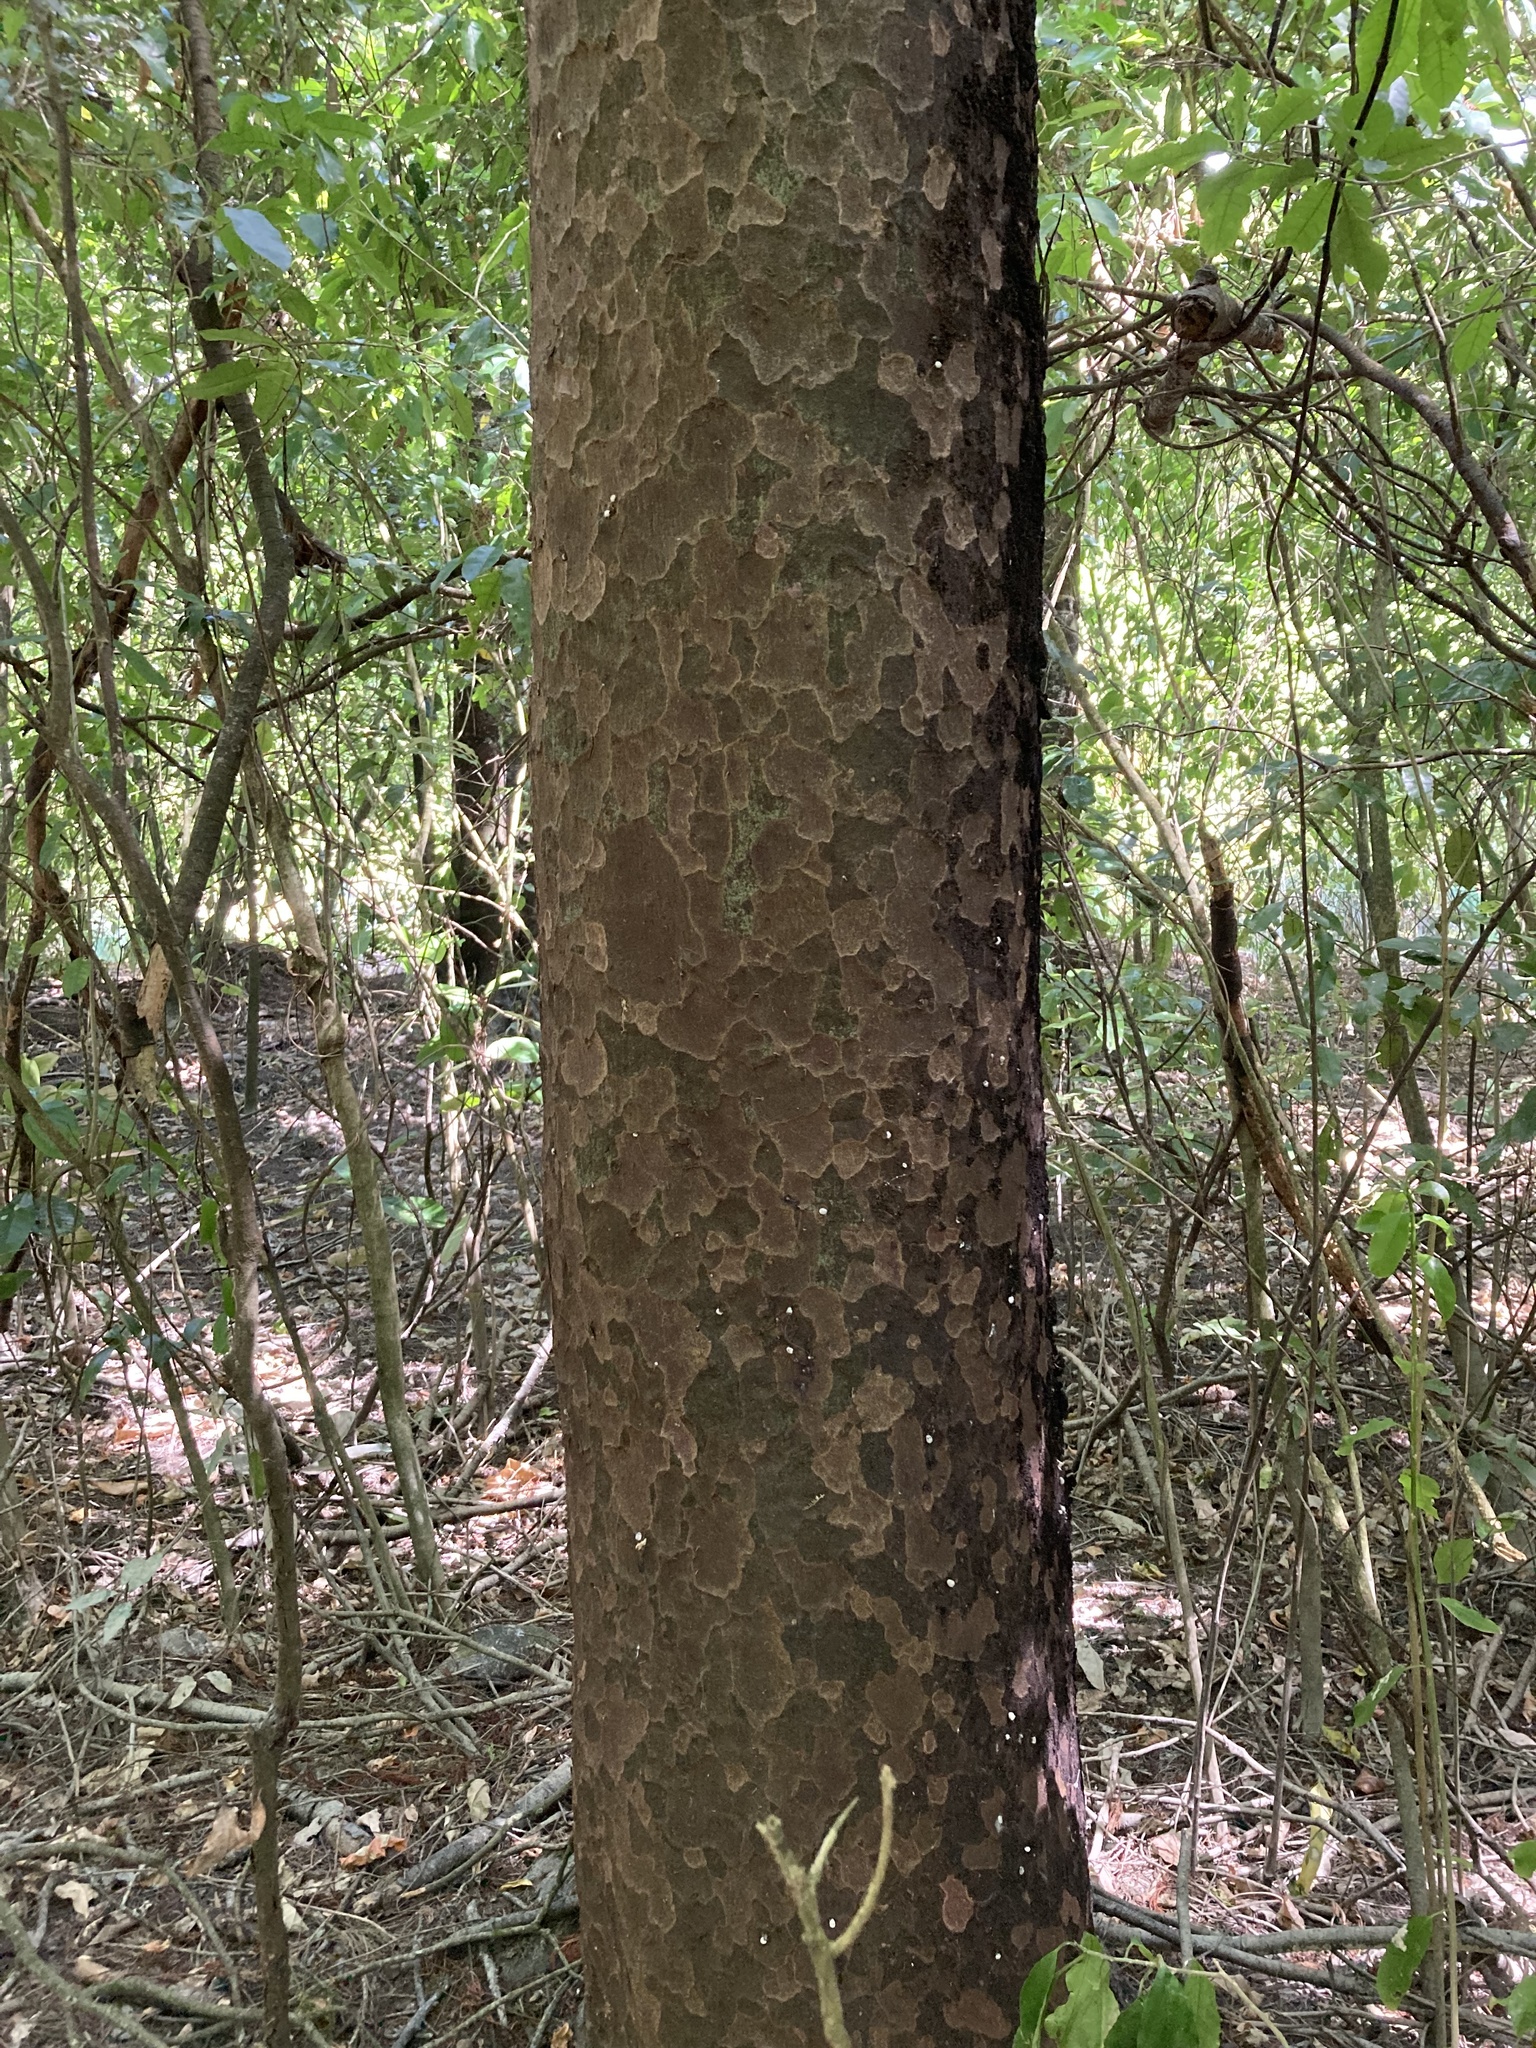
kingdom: Plantae
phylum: Tracheophyta
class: Pinopsida
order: Pinales
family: Podocarpaceae
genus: Prumnopitys
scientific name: Prumnopitys taxifolia
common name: Matai
